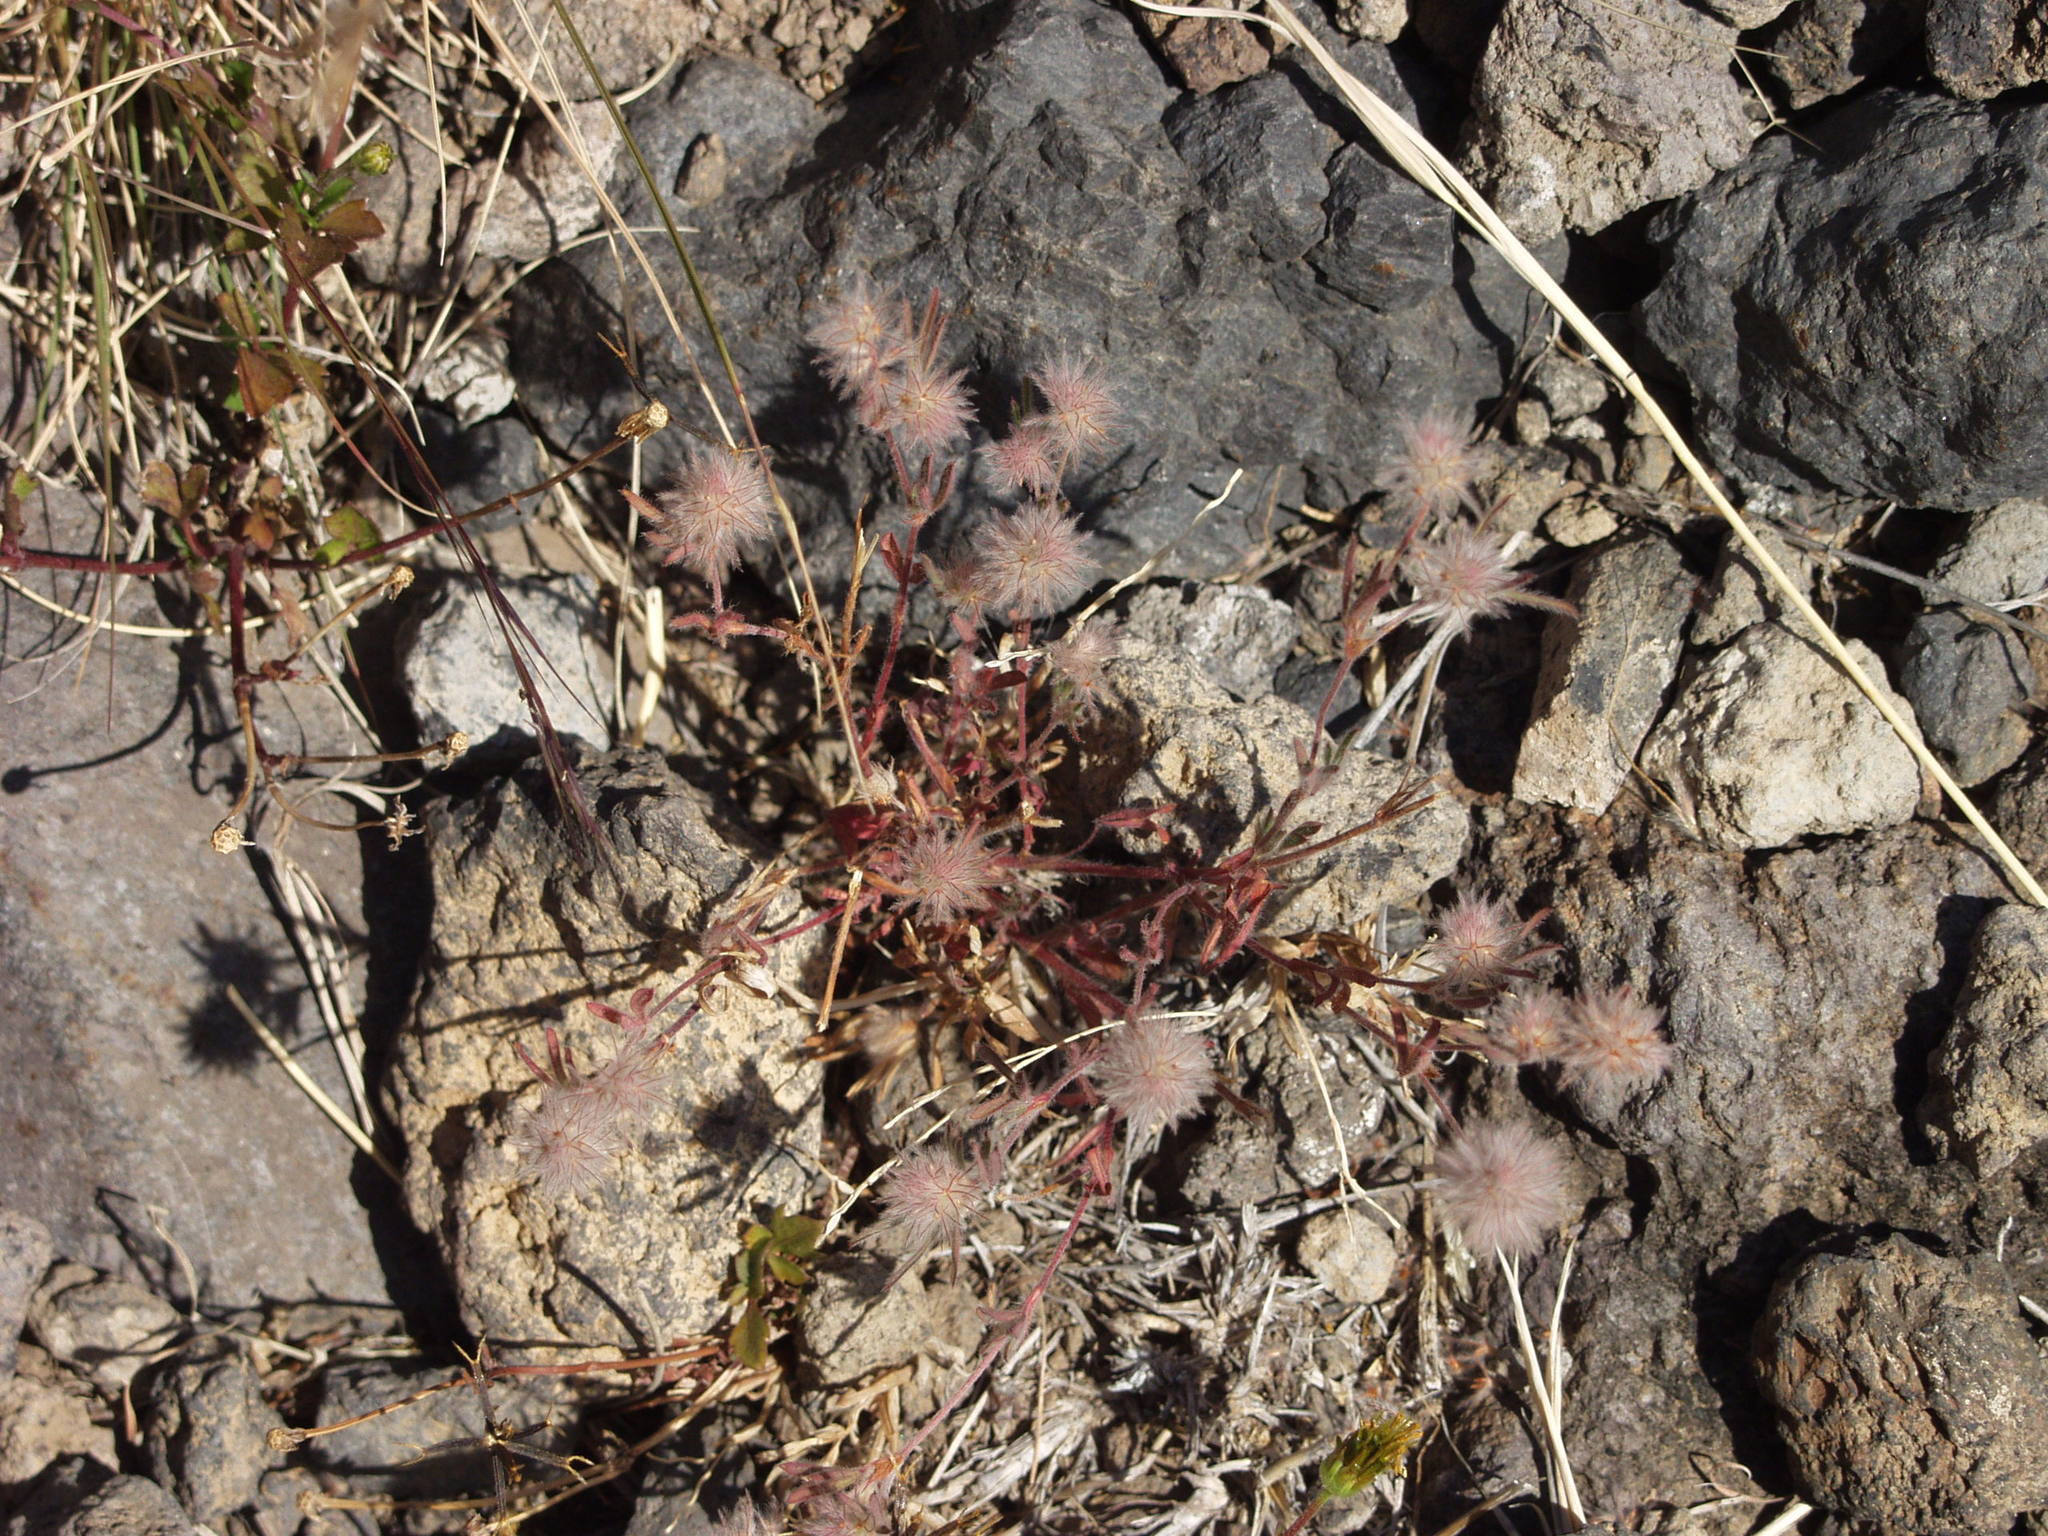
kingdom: Plantae
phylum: Tracheophyta
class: Magnoliopsida
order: Fabales
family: Fabaceae
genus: Trifolium
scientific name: Trifolium arvense
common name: Hare's-foot clover
